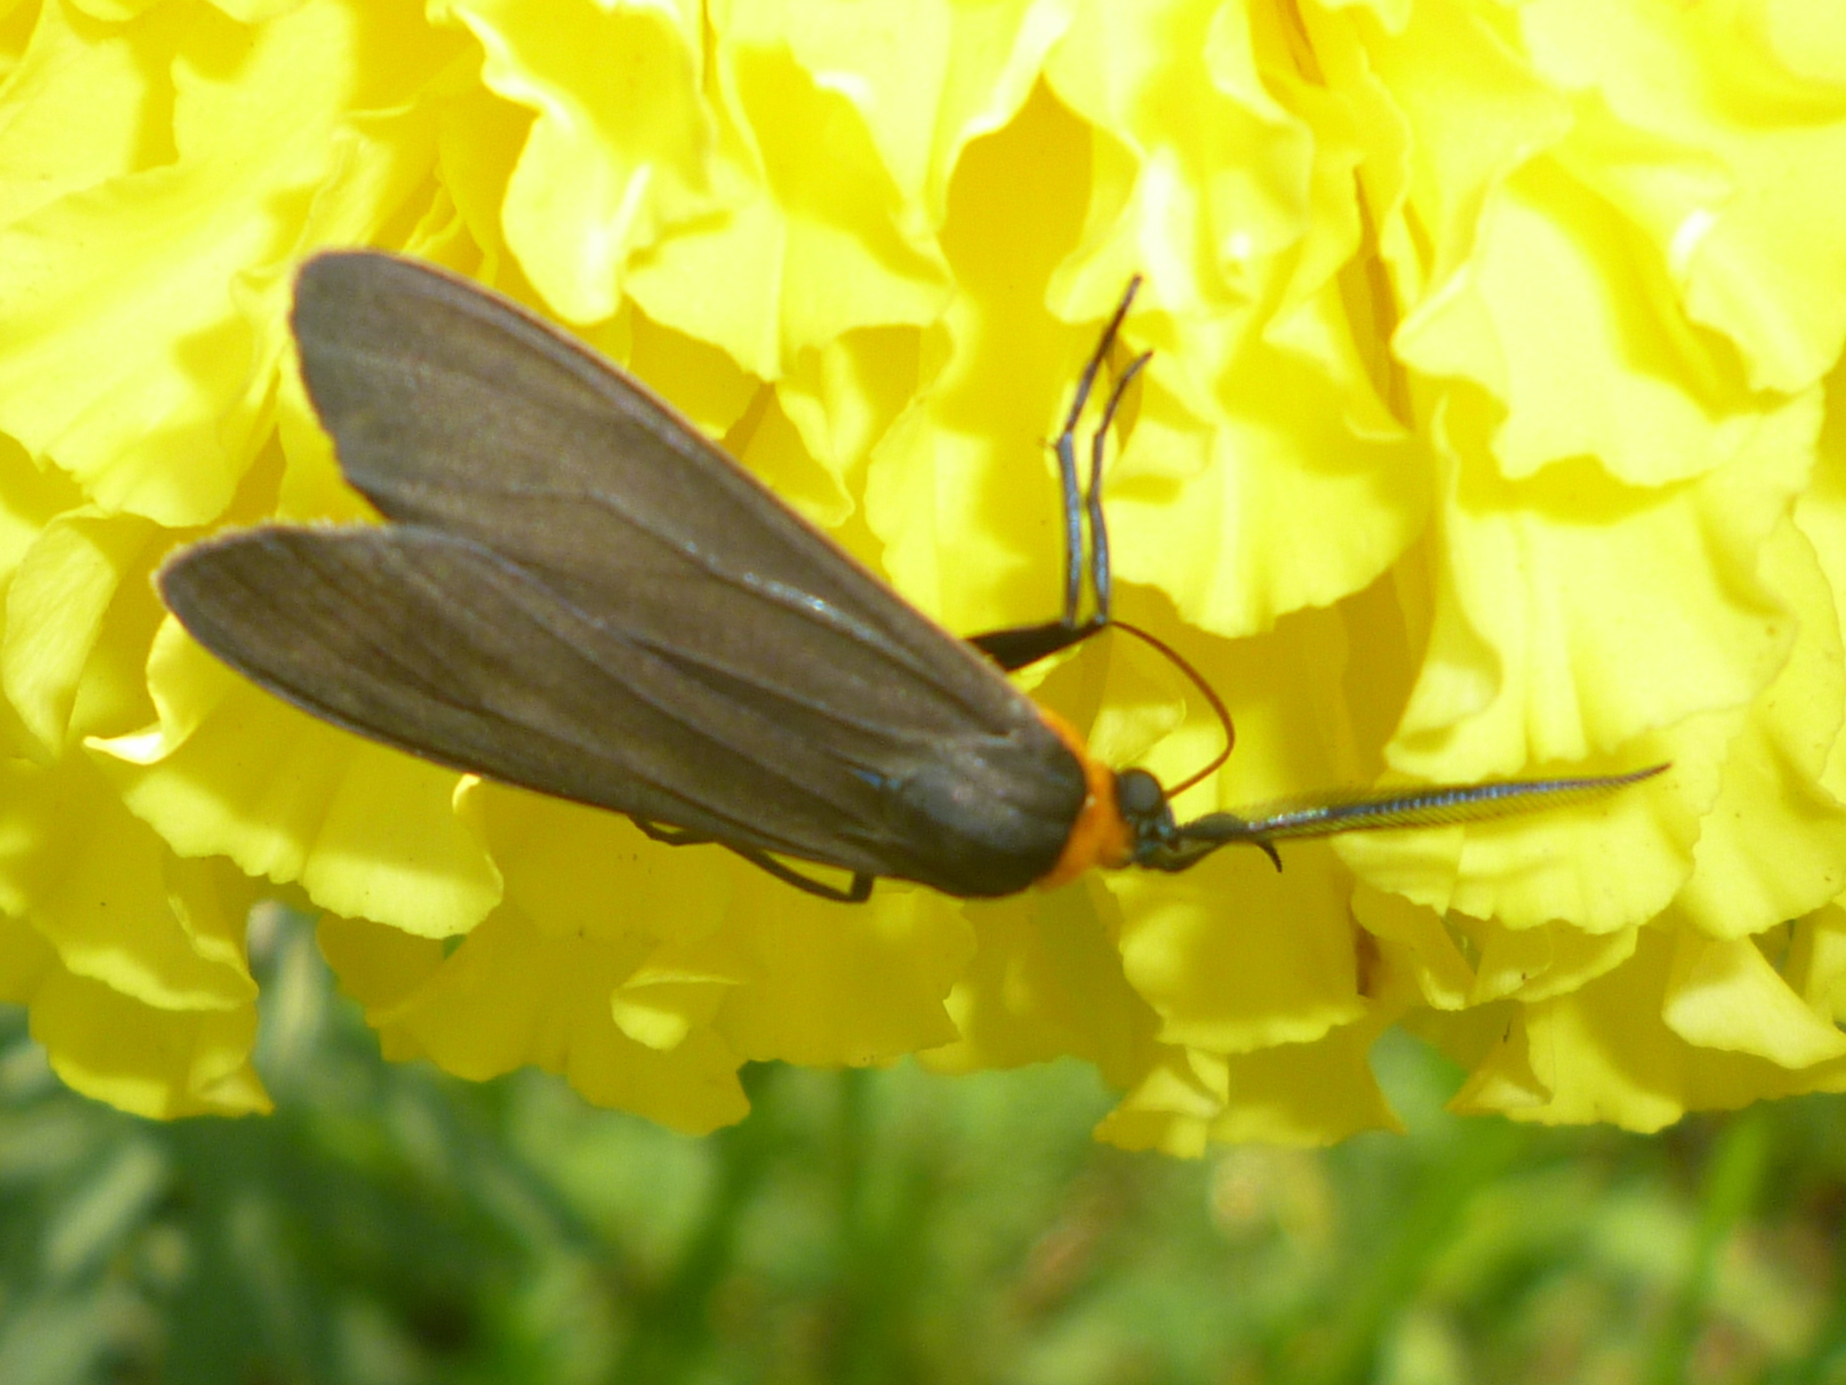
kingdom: Animalia
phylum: Arthropoda
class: Insecta
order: Lepidoptera
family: Erebidae
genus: Cisseps
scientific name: Cisseps fulvicollis
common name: Yellow-collared scape moth
